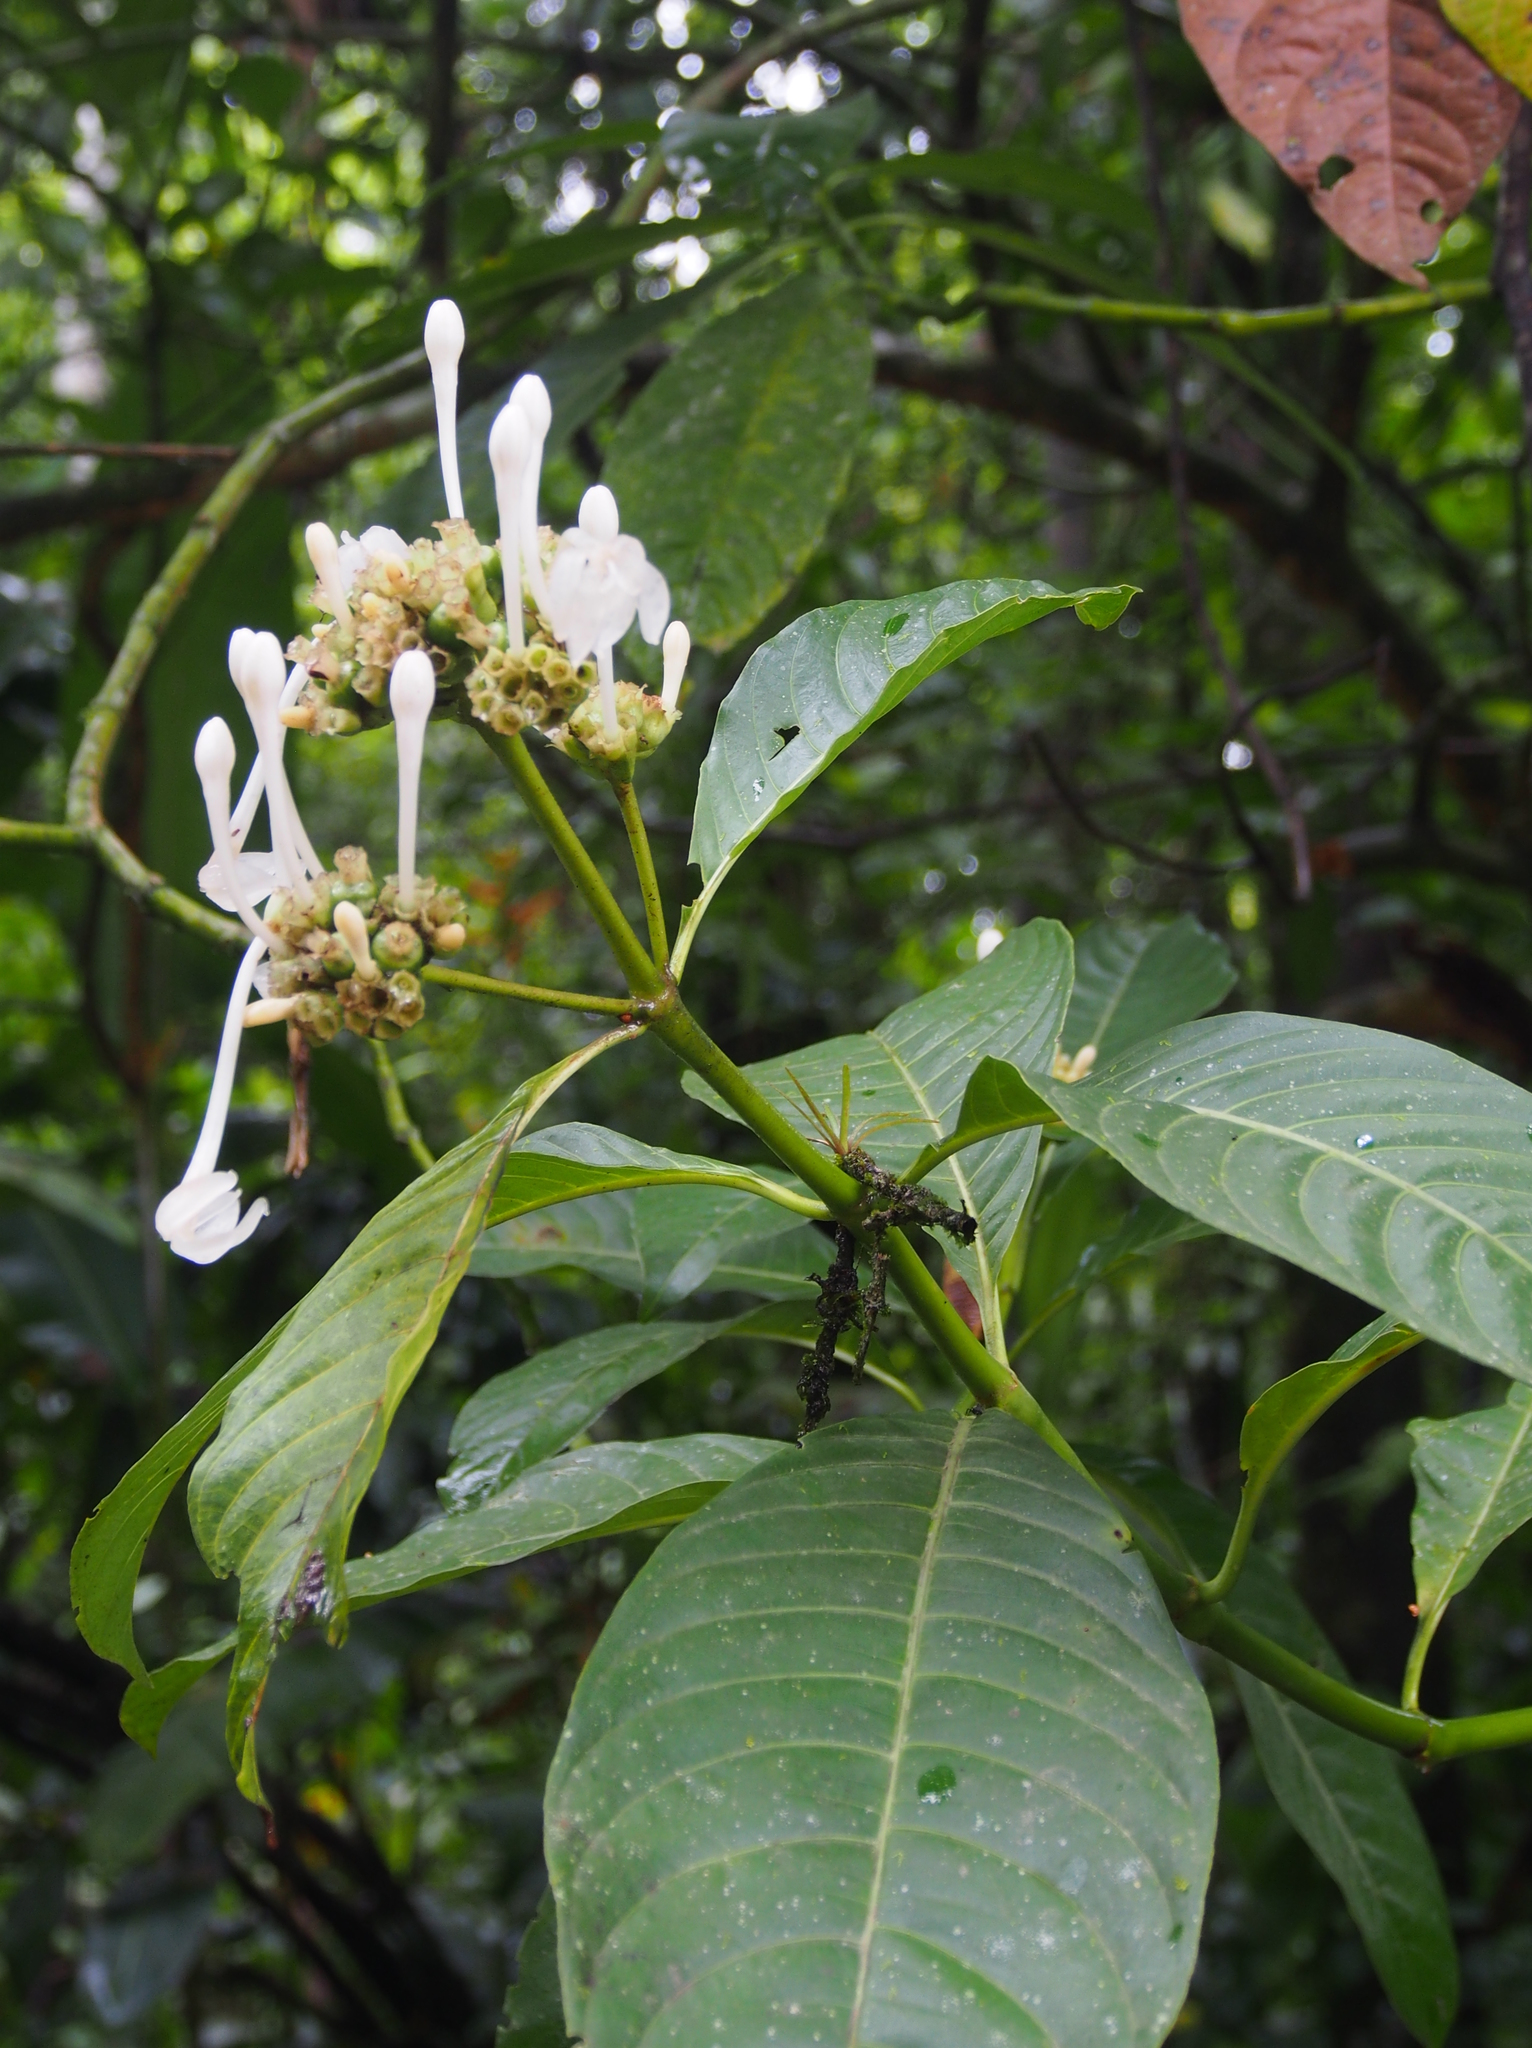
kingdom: Plantae
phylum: Tracheophyta
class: Magnoliopsida
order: Gentianales
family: Rubiaceae
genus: Palicourea
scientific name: Palicourea tetragona
